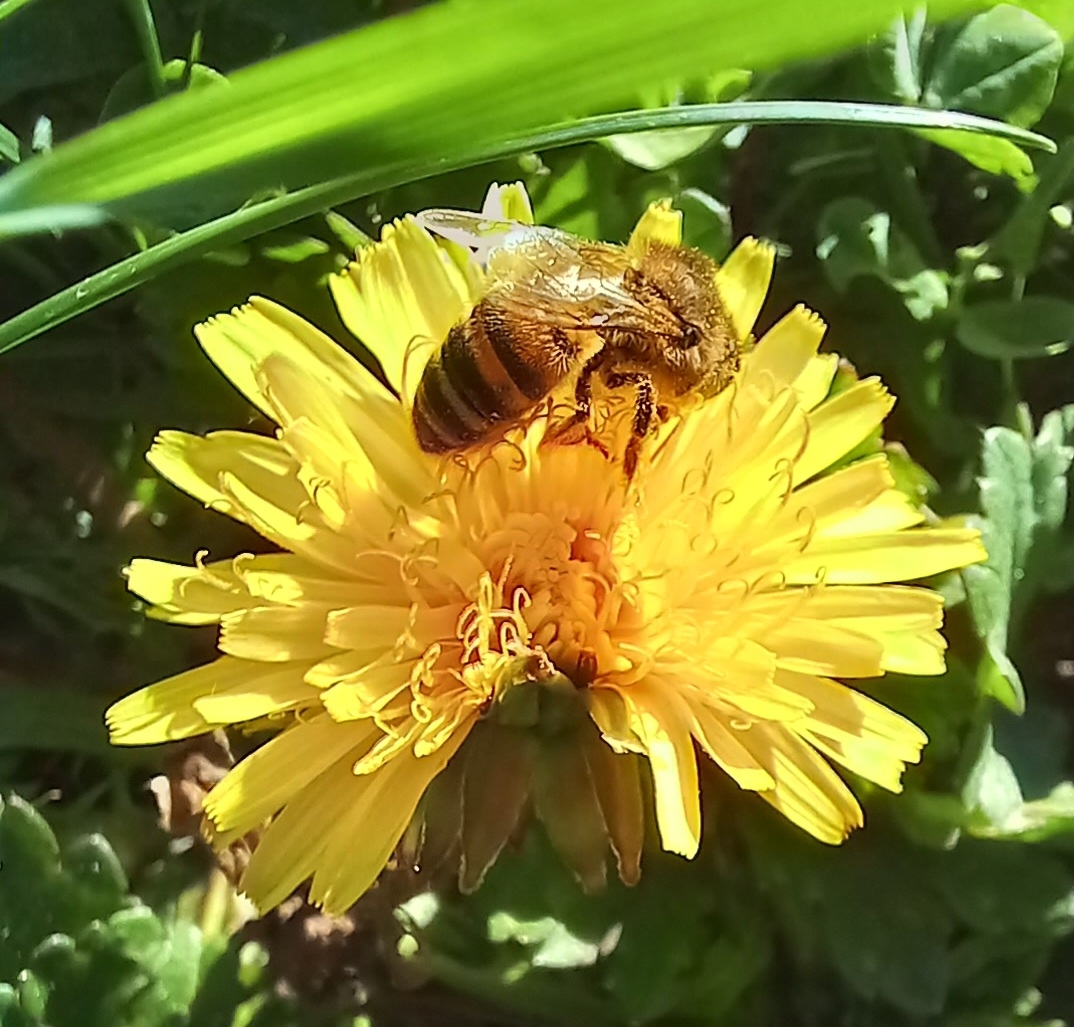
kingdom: Animalia
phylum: Arthropoda
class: Insecta
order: Hymenoptera
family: Apidae
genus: Apis
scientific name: Apis mellifera
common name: Honey bee
